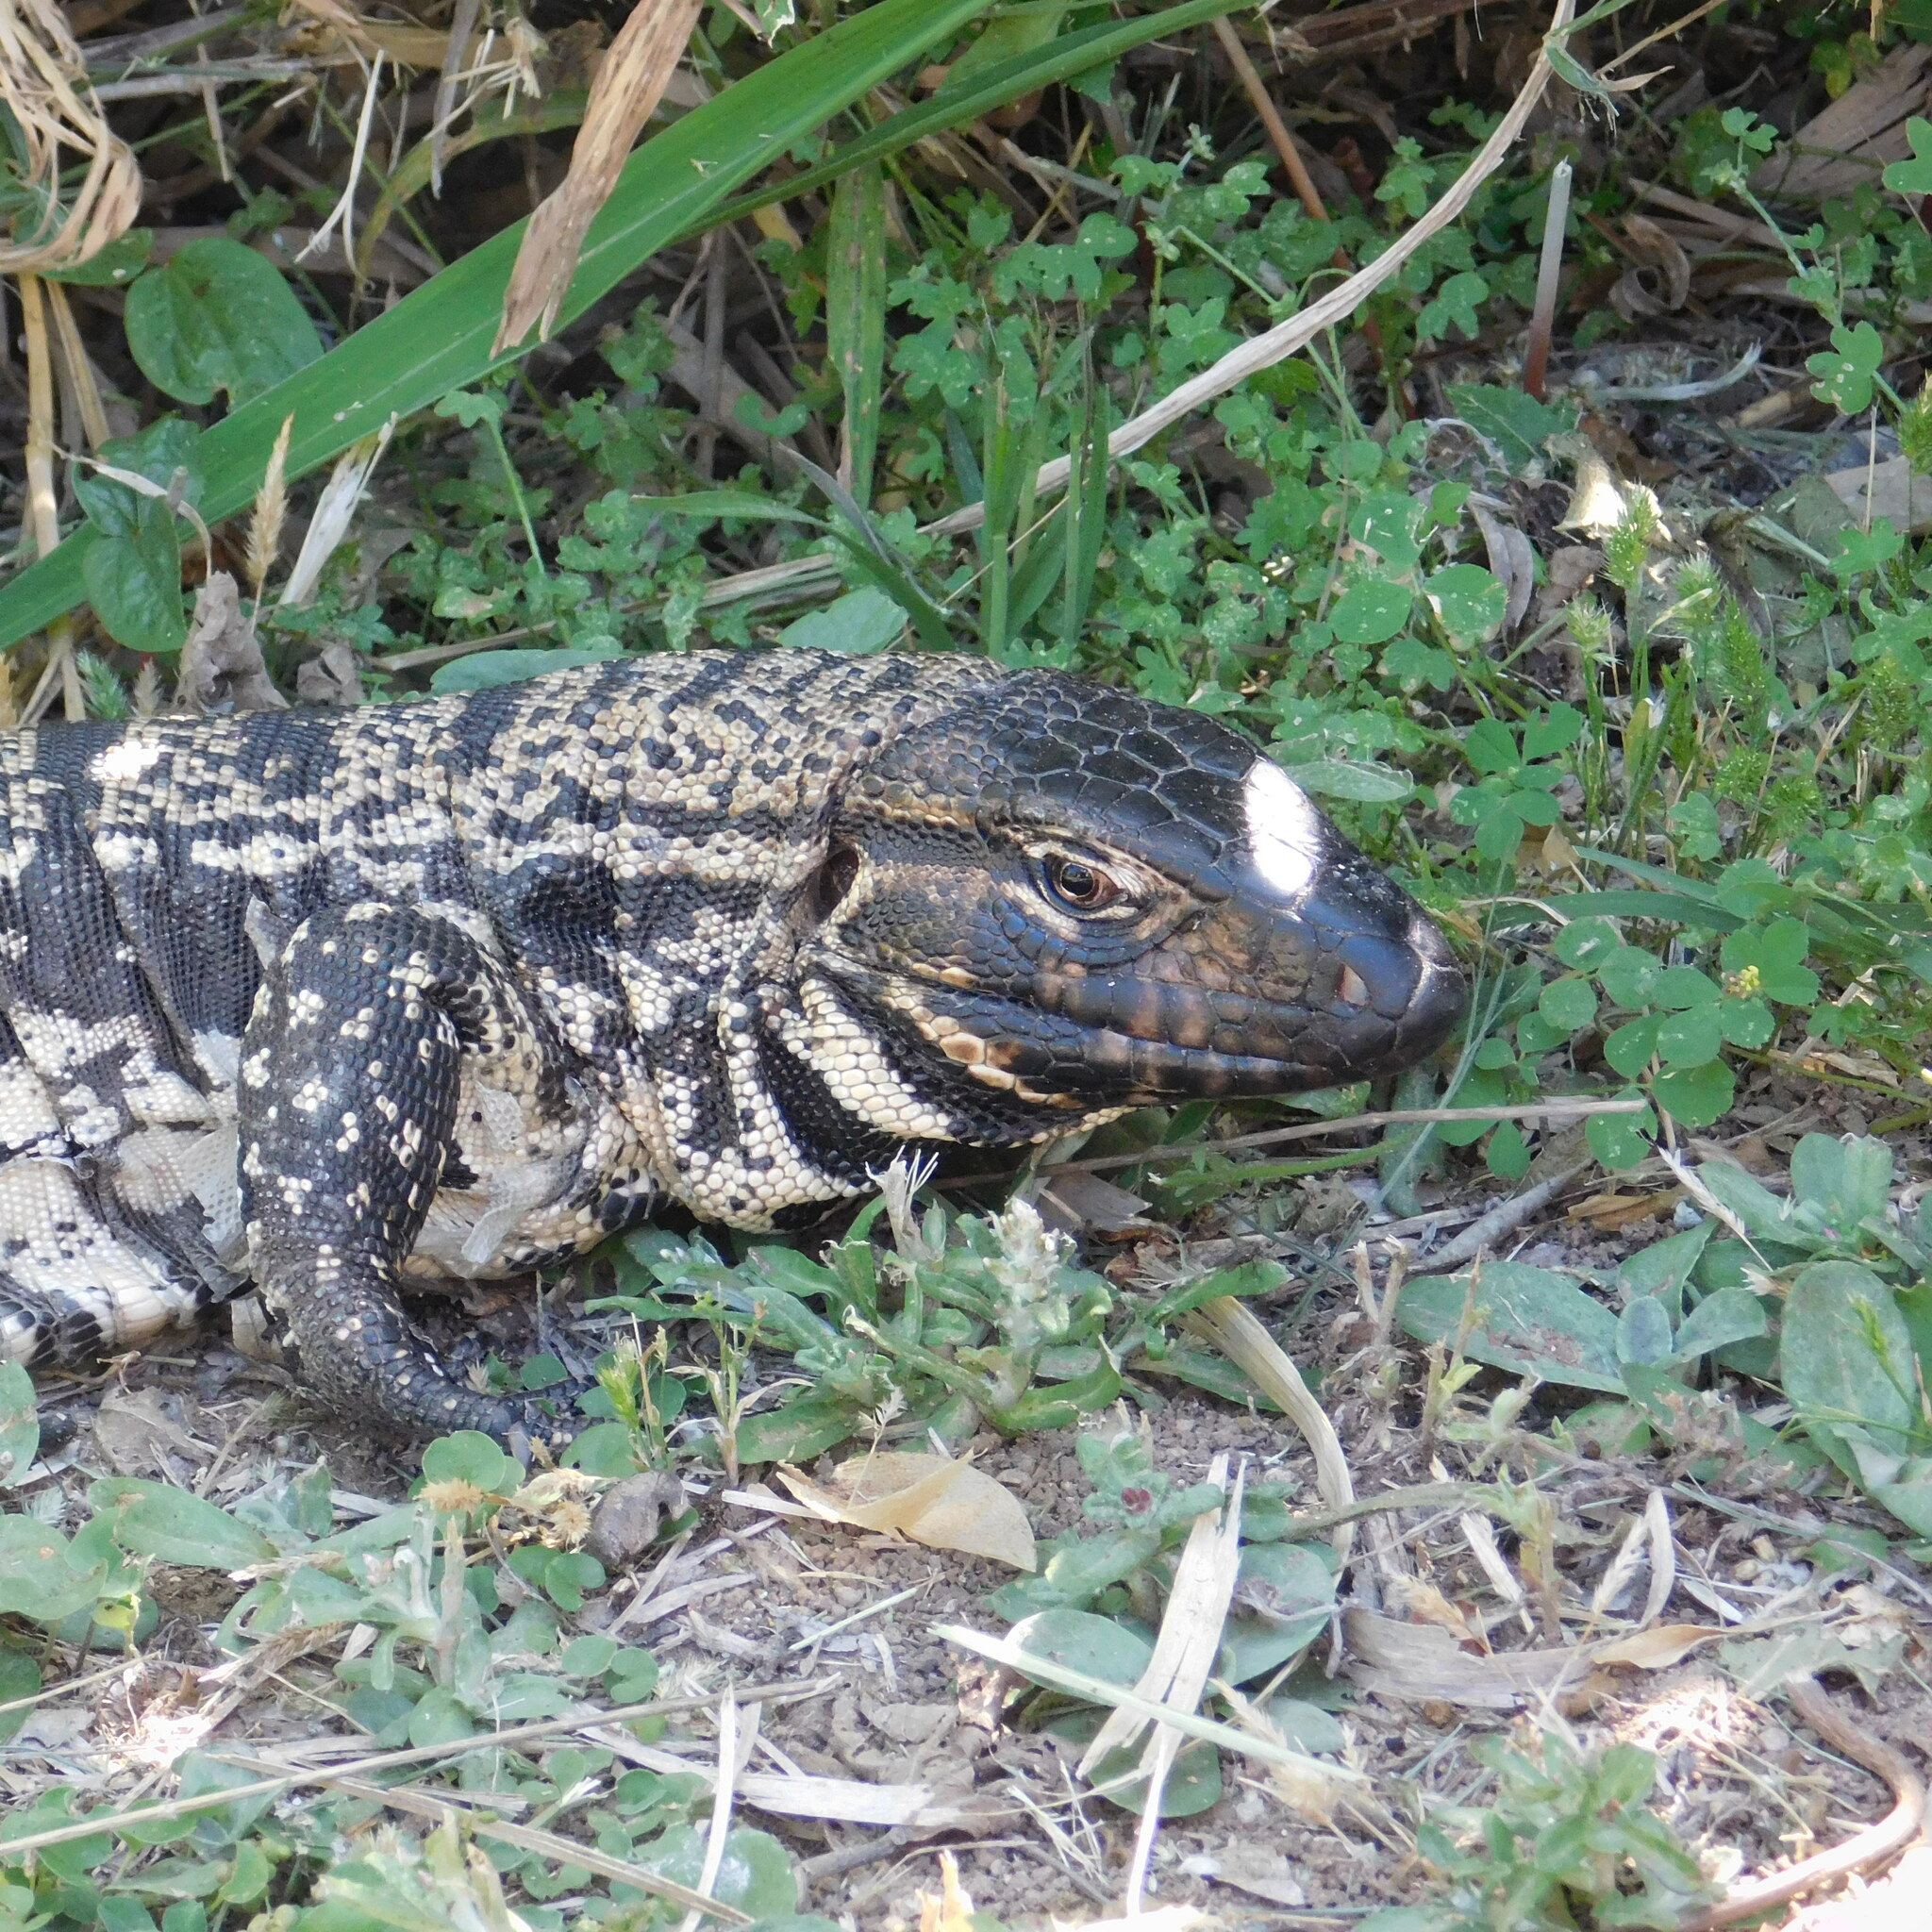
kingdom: Animalia
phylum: Chordata
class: Squamata
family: Teiidae
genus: Salvator
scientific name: Salvator merianae
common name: Argentine black and white tegu
